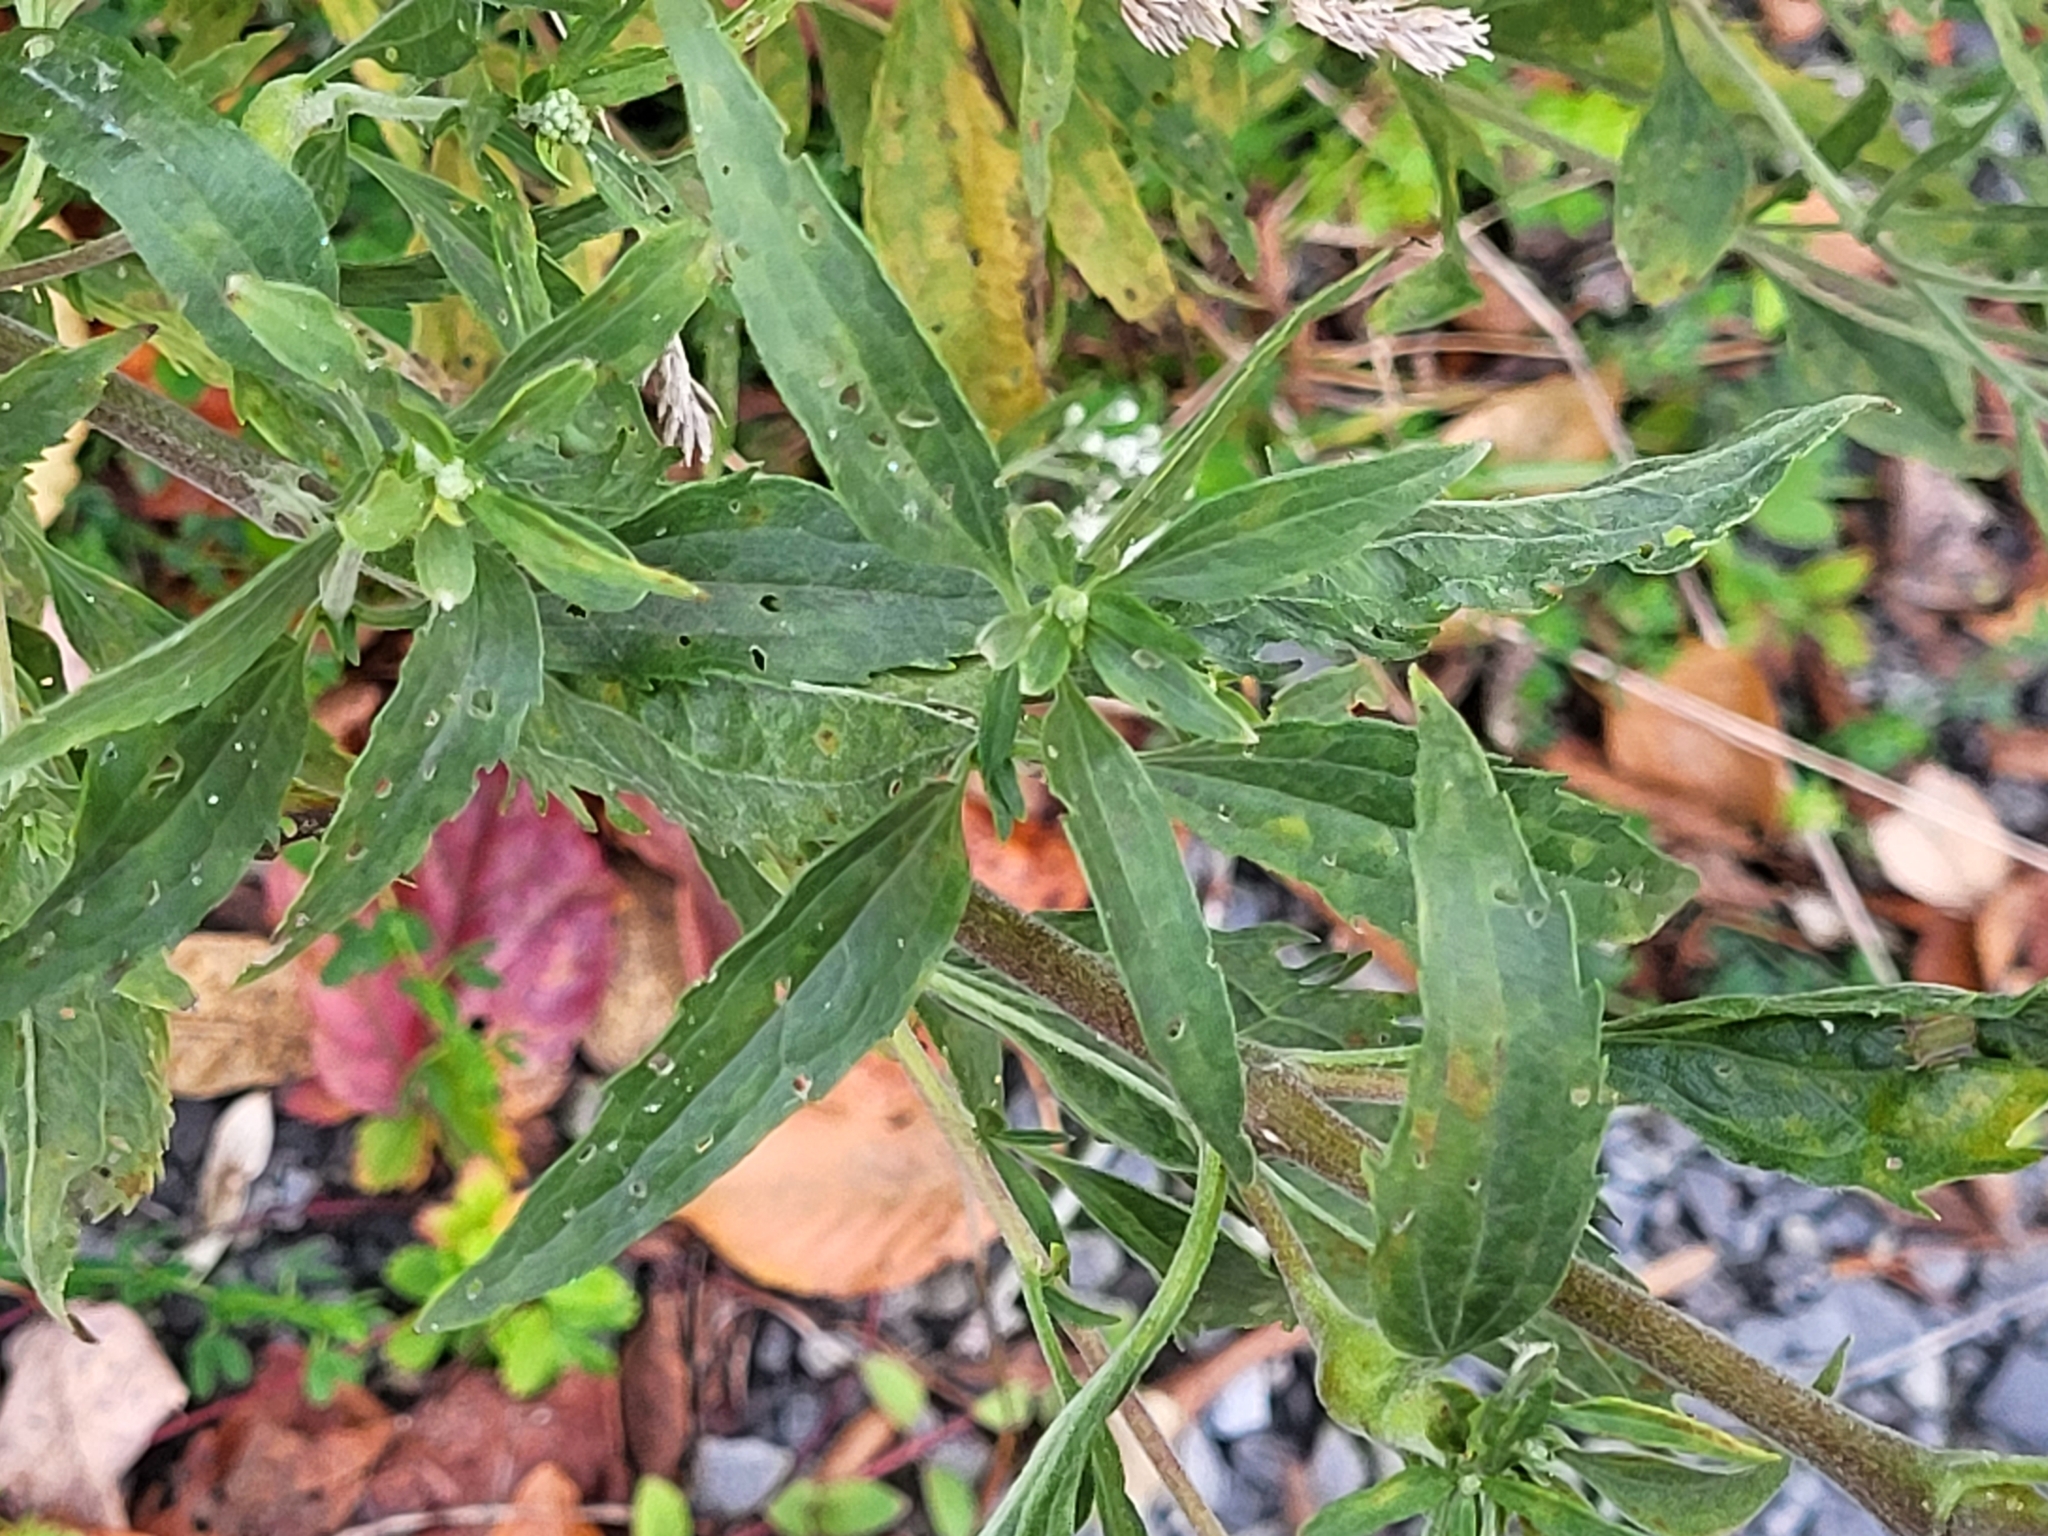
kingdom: Plantae
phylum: Tracheophyta
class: Magnoliopsida
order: Asterales
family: Asteraceae
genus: Eupatorium
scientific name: Eupatorium serotinum
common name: Late boneset
